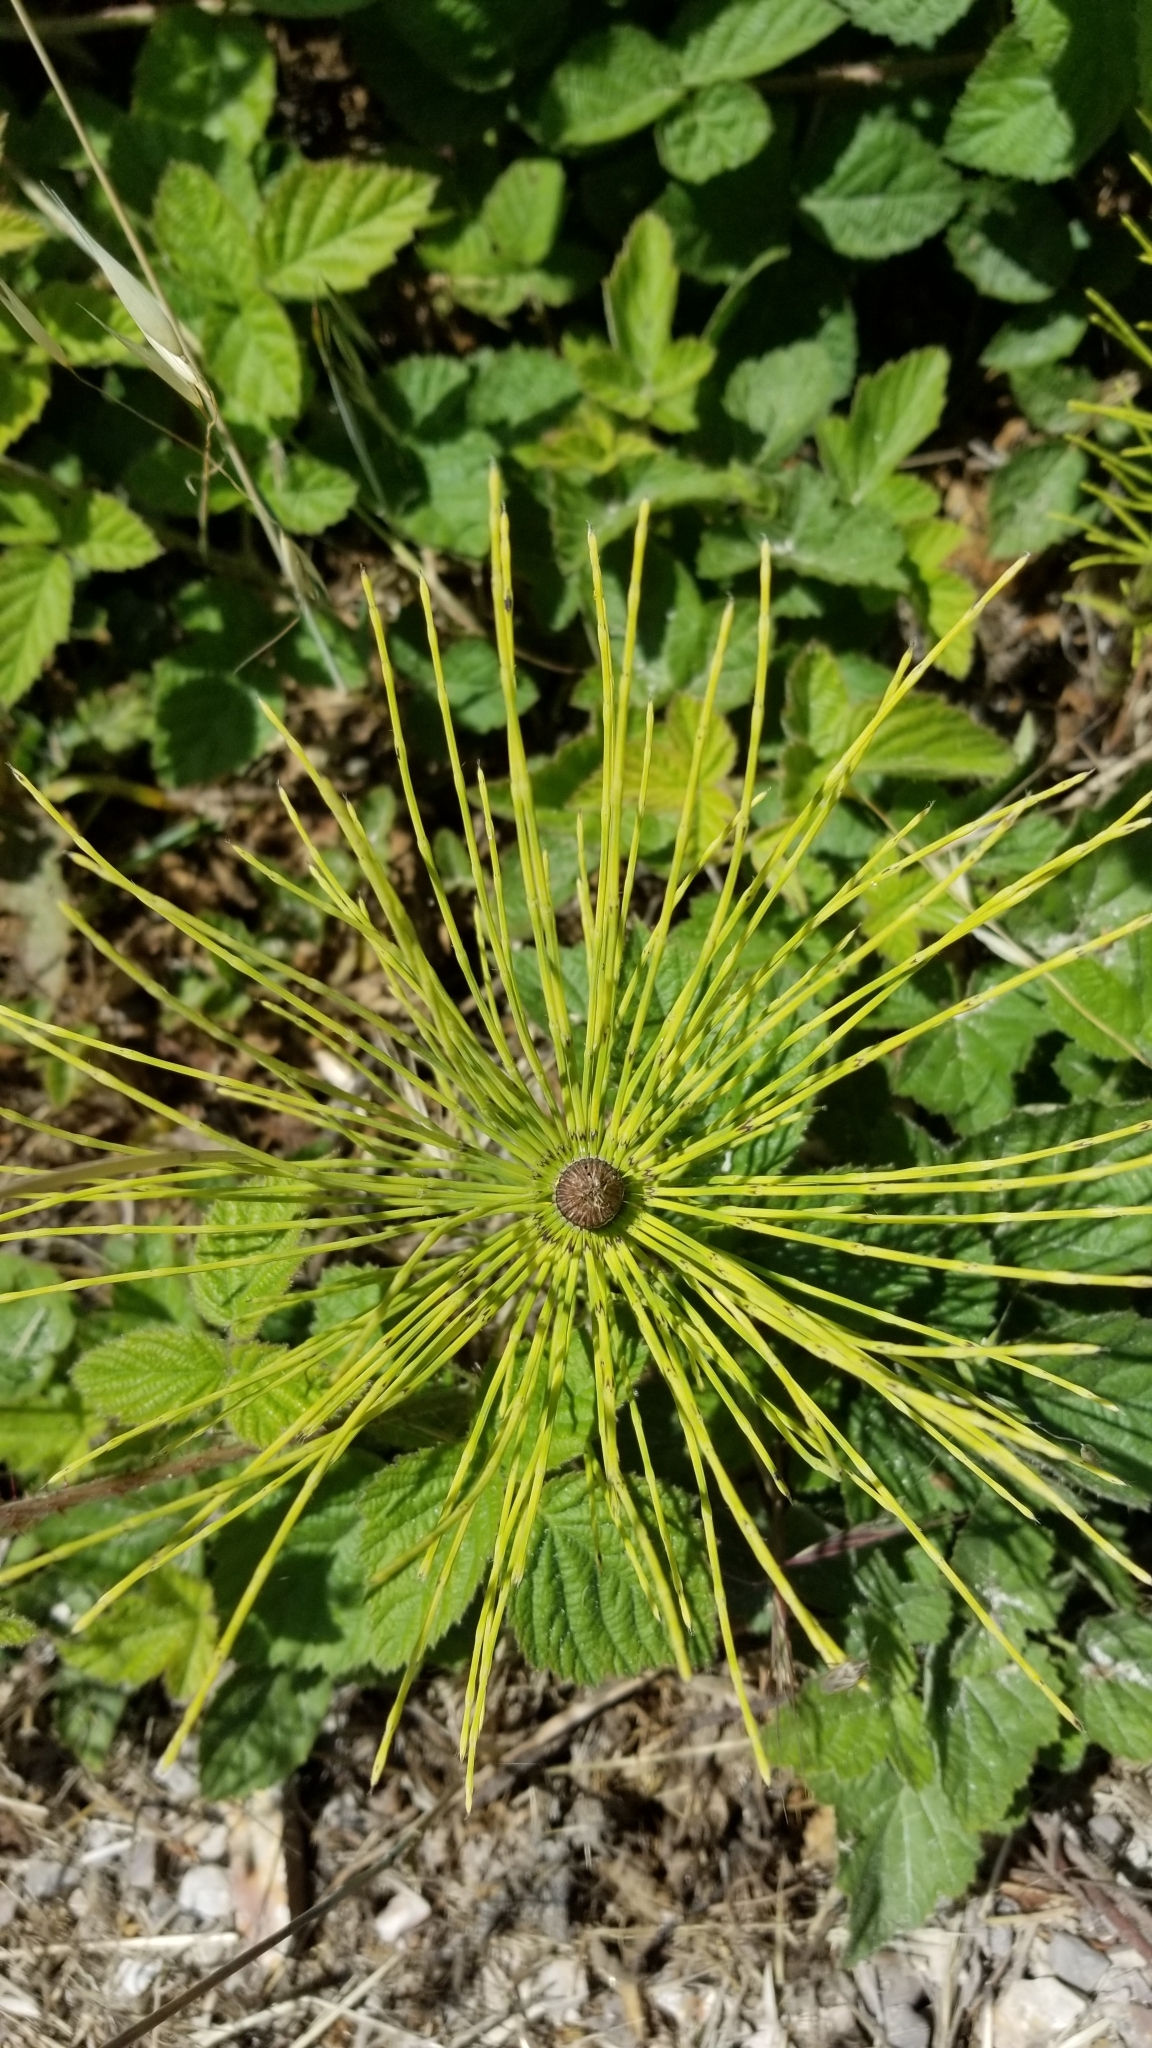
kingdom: Plantae
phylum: Tracheophyta
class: Polypodiopsida
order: Equisetales
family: Equisetaceae
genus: Equisetum
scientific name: Equisetum telmateia
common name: Great horsetail
